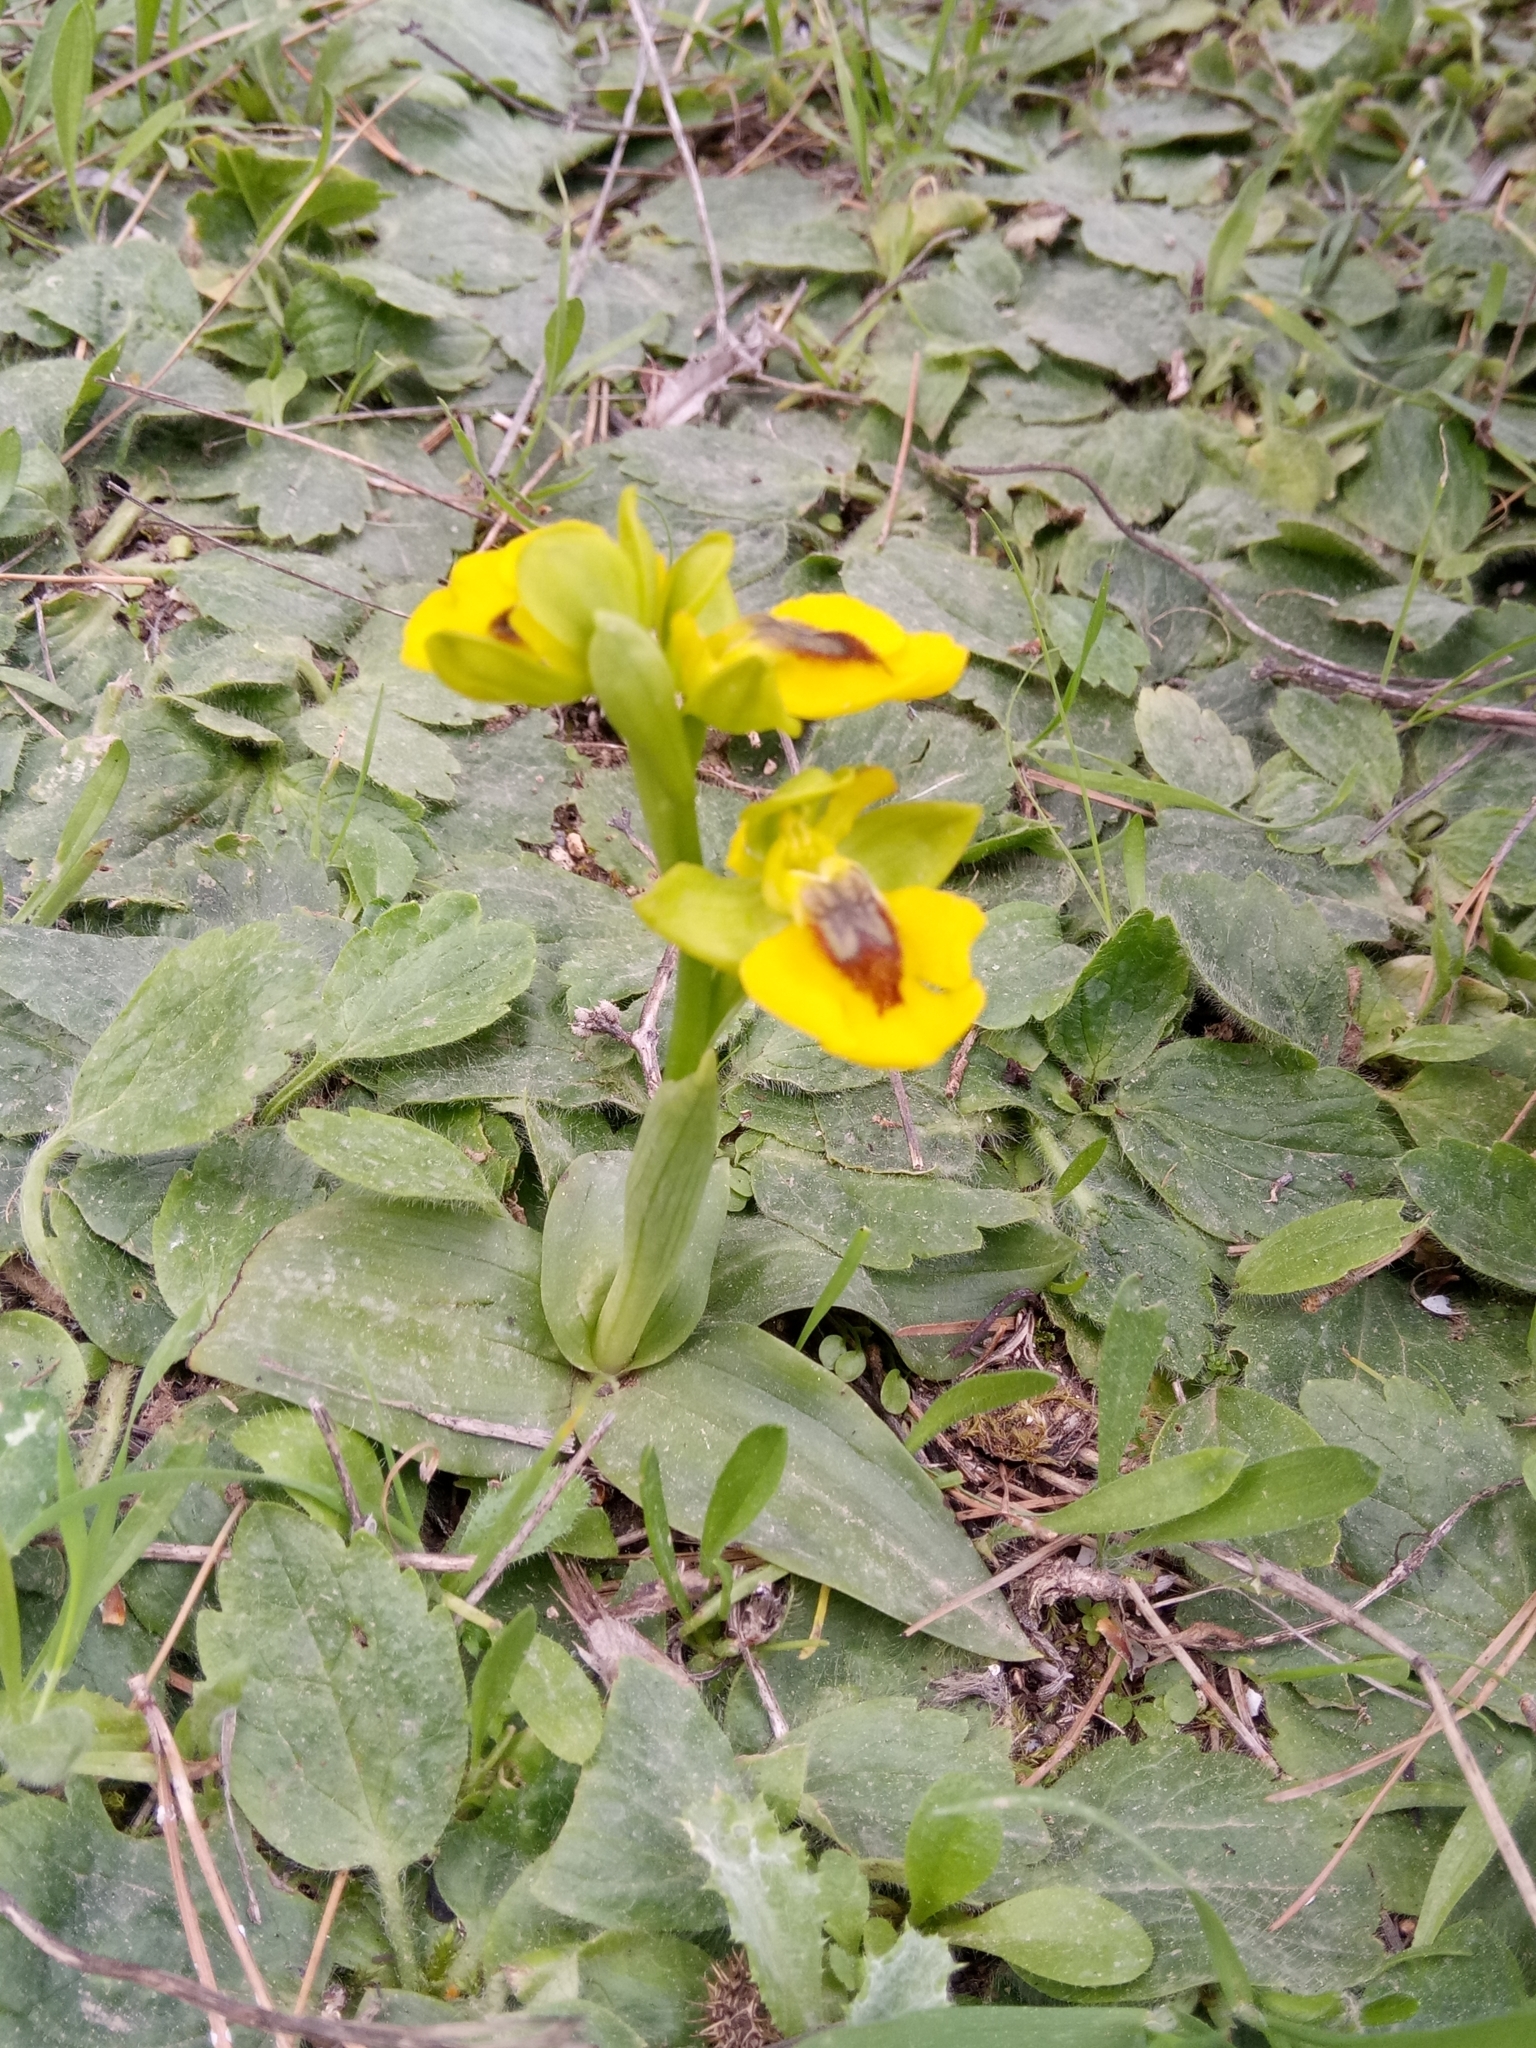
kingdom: Plantae
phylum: Tracheophyta
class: Liliopsida
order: Asparagales
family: Orchidaceae
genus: Ophrys
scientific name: Ophrys lutea
